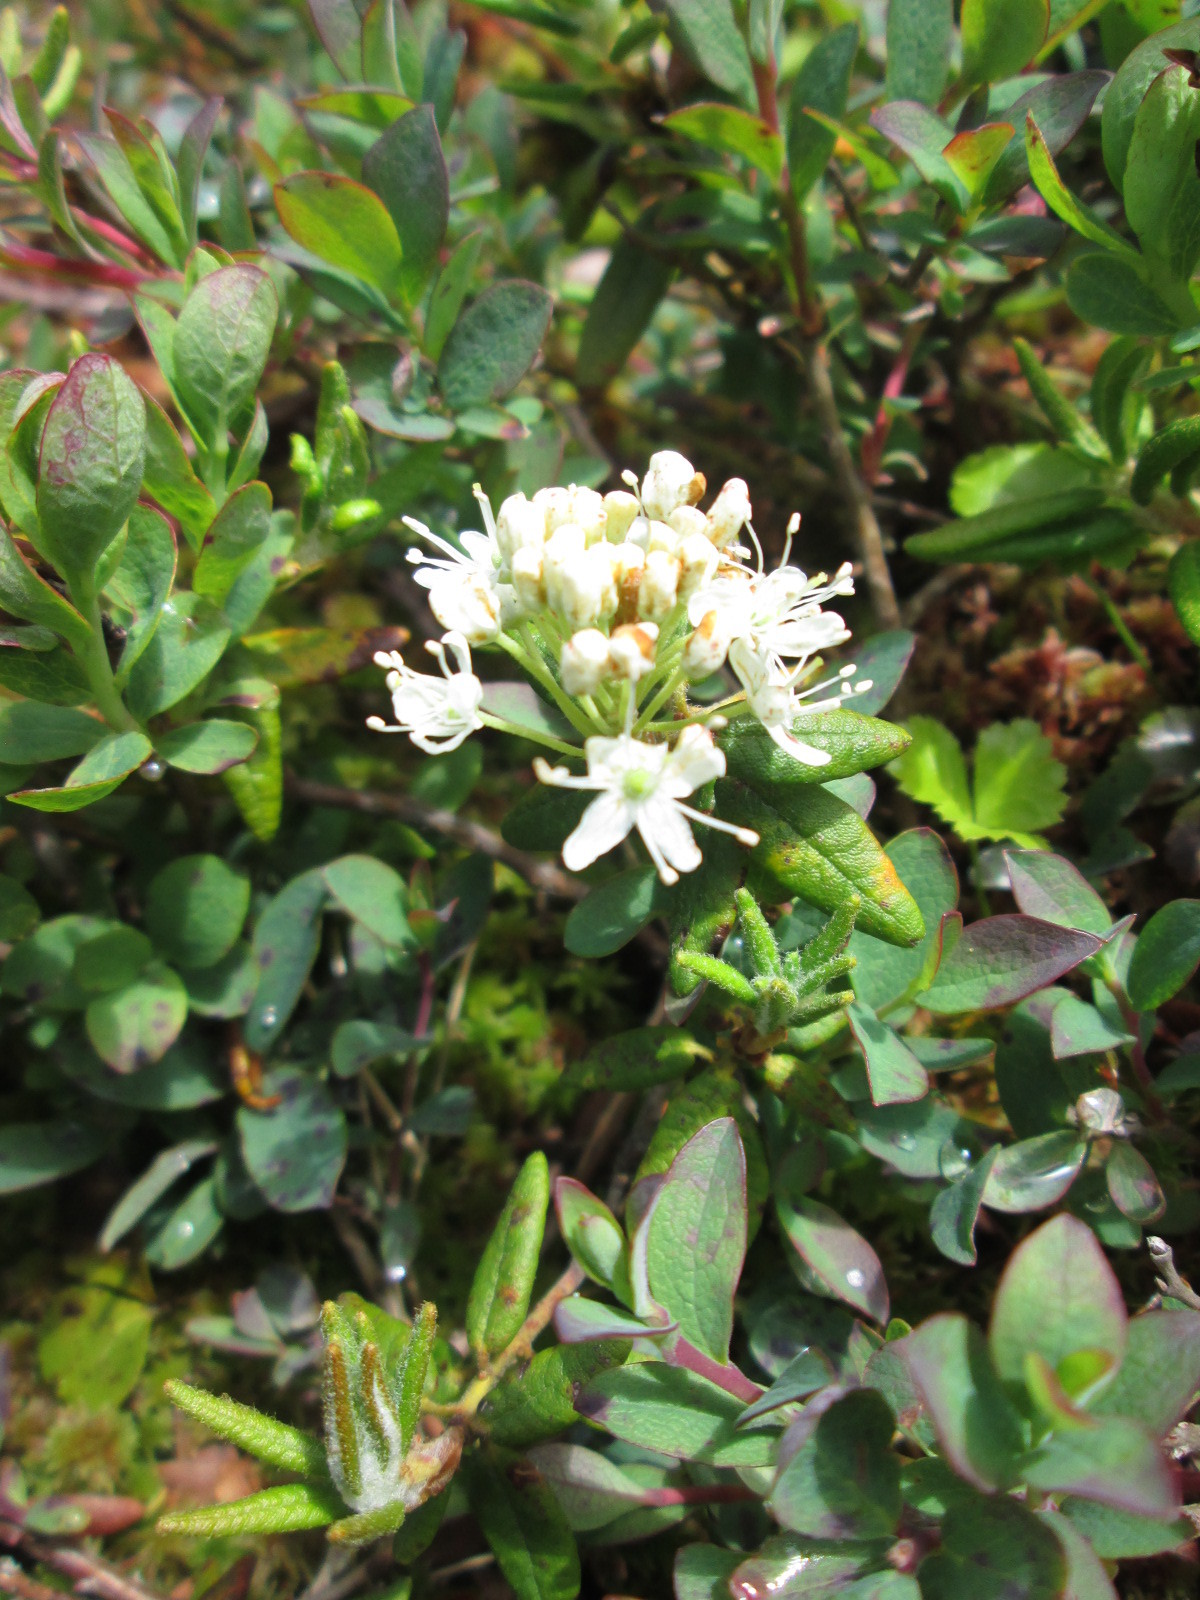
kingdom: Plantae
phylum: Tracheophyta
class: Magnoliopsida
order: Ericales
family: Ericaceae
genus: Rhododendron
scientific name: Rhododendron groenlandicum
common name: Bog labrador tea
